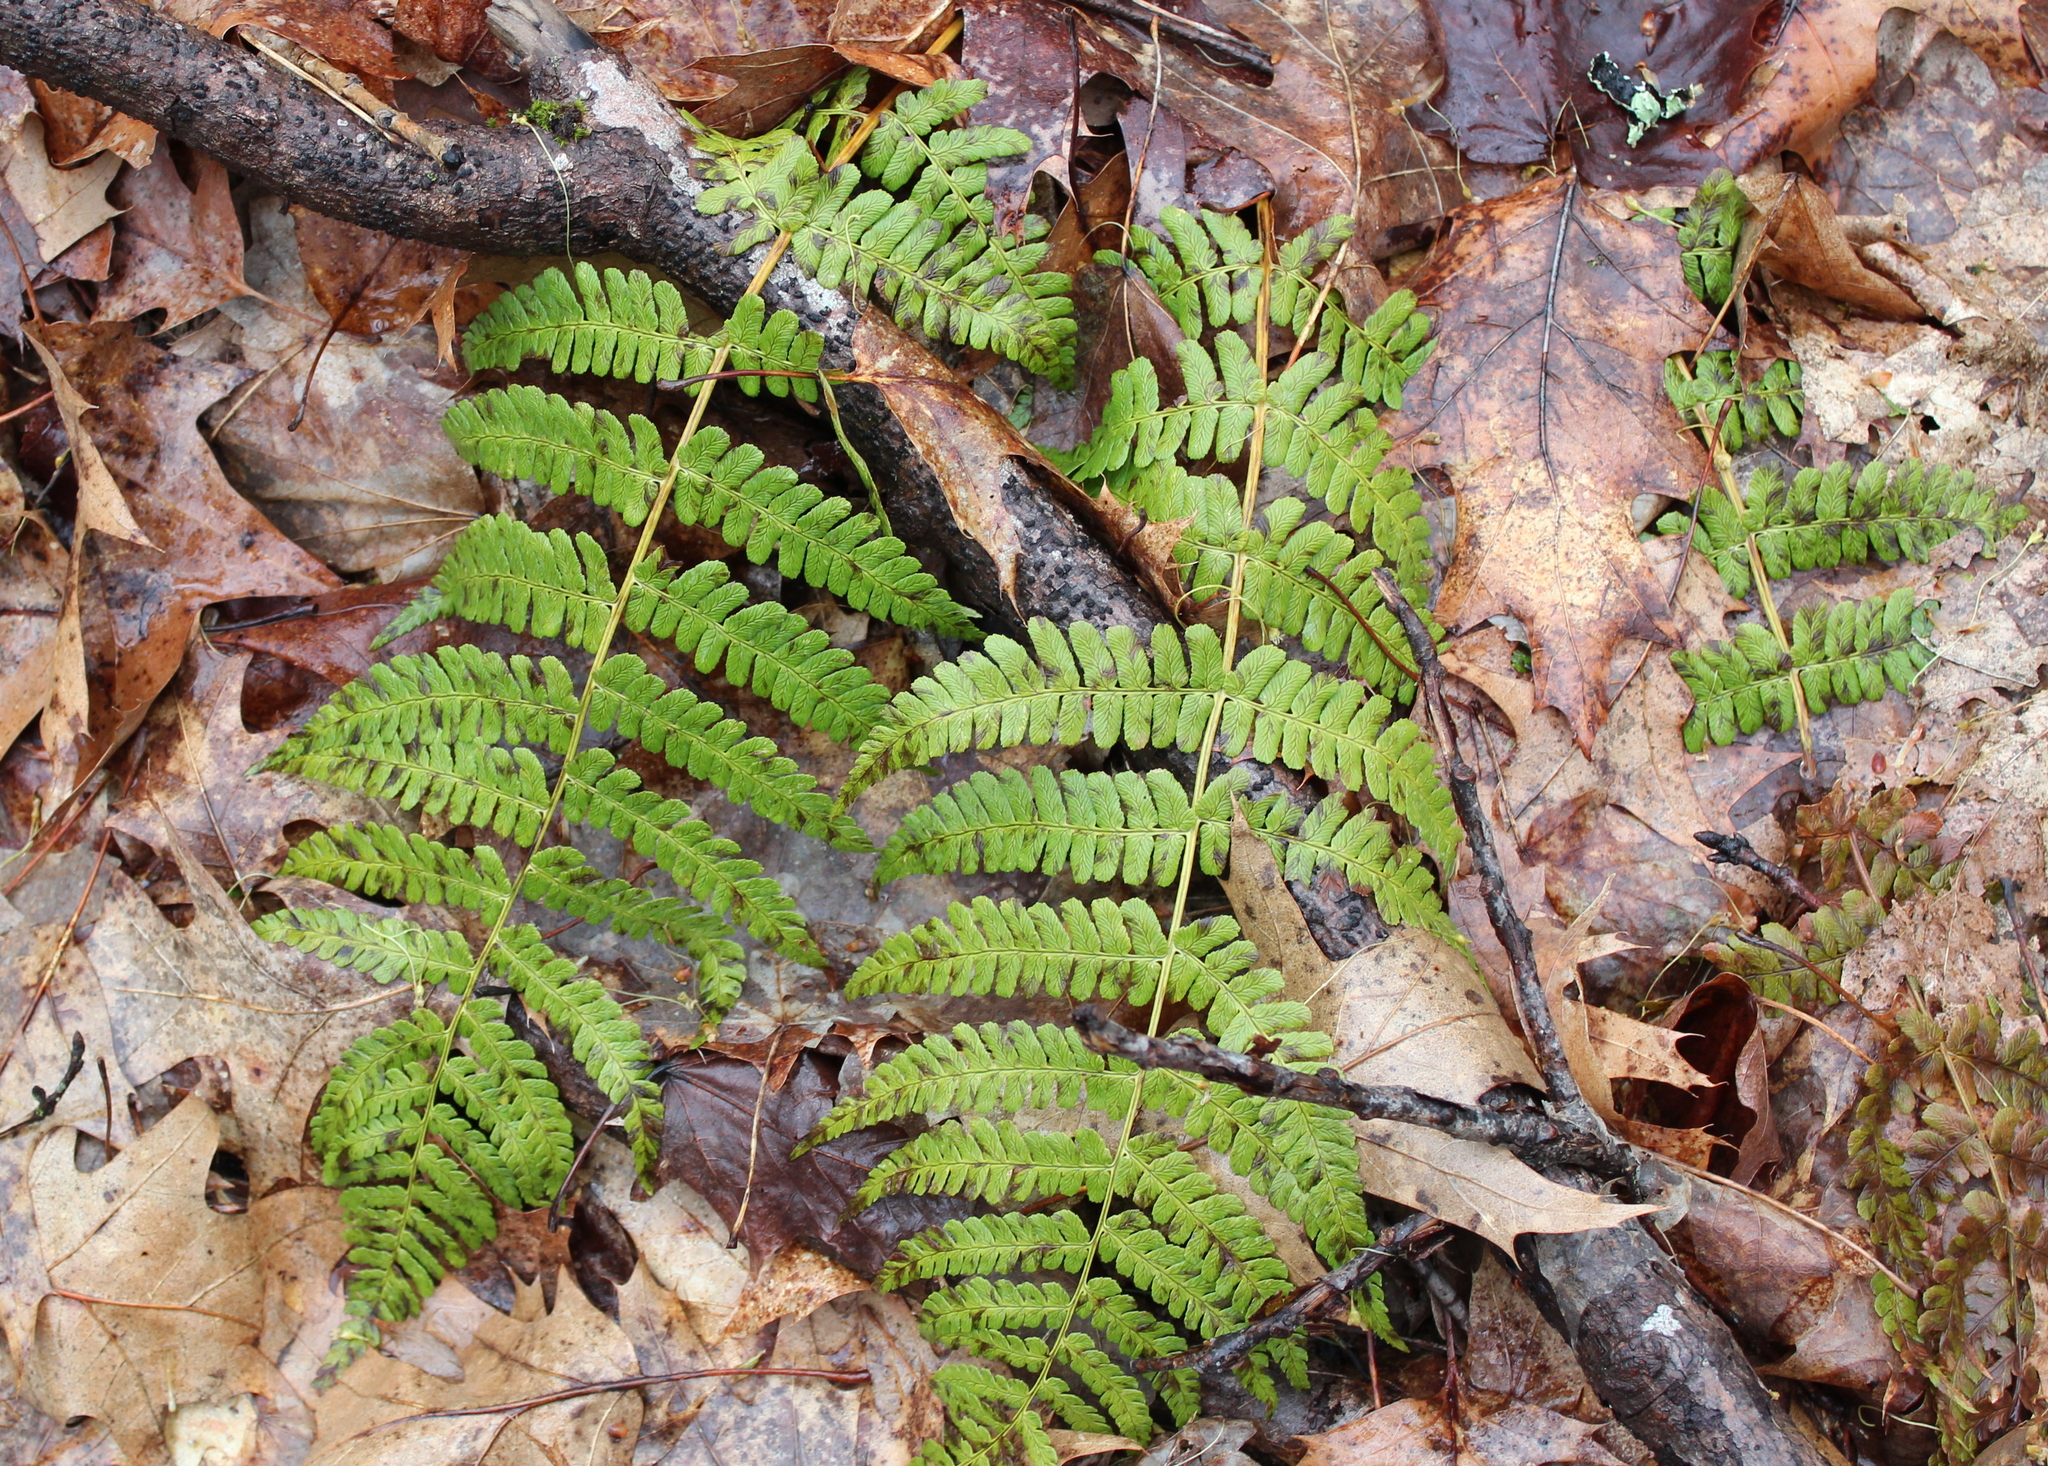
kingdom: Plantae
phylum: Tracheophyta
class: Polypodiopsida
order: Polypodiales
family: Dryopteridaceae
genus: Dryopteris
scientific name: Dryopteris marginalis
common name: Marginal wood fern
